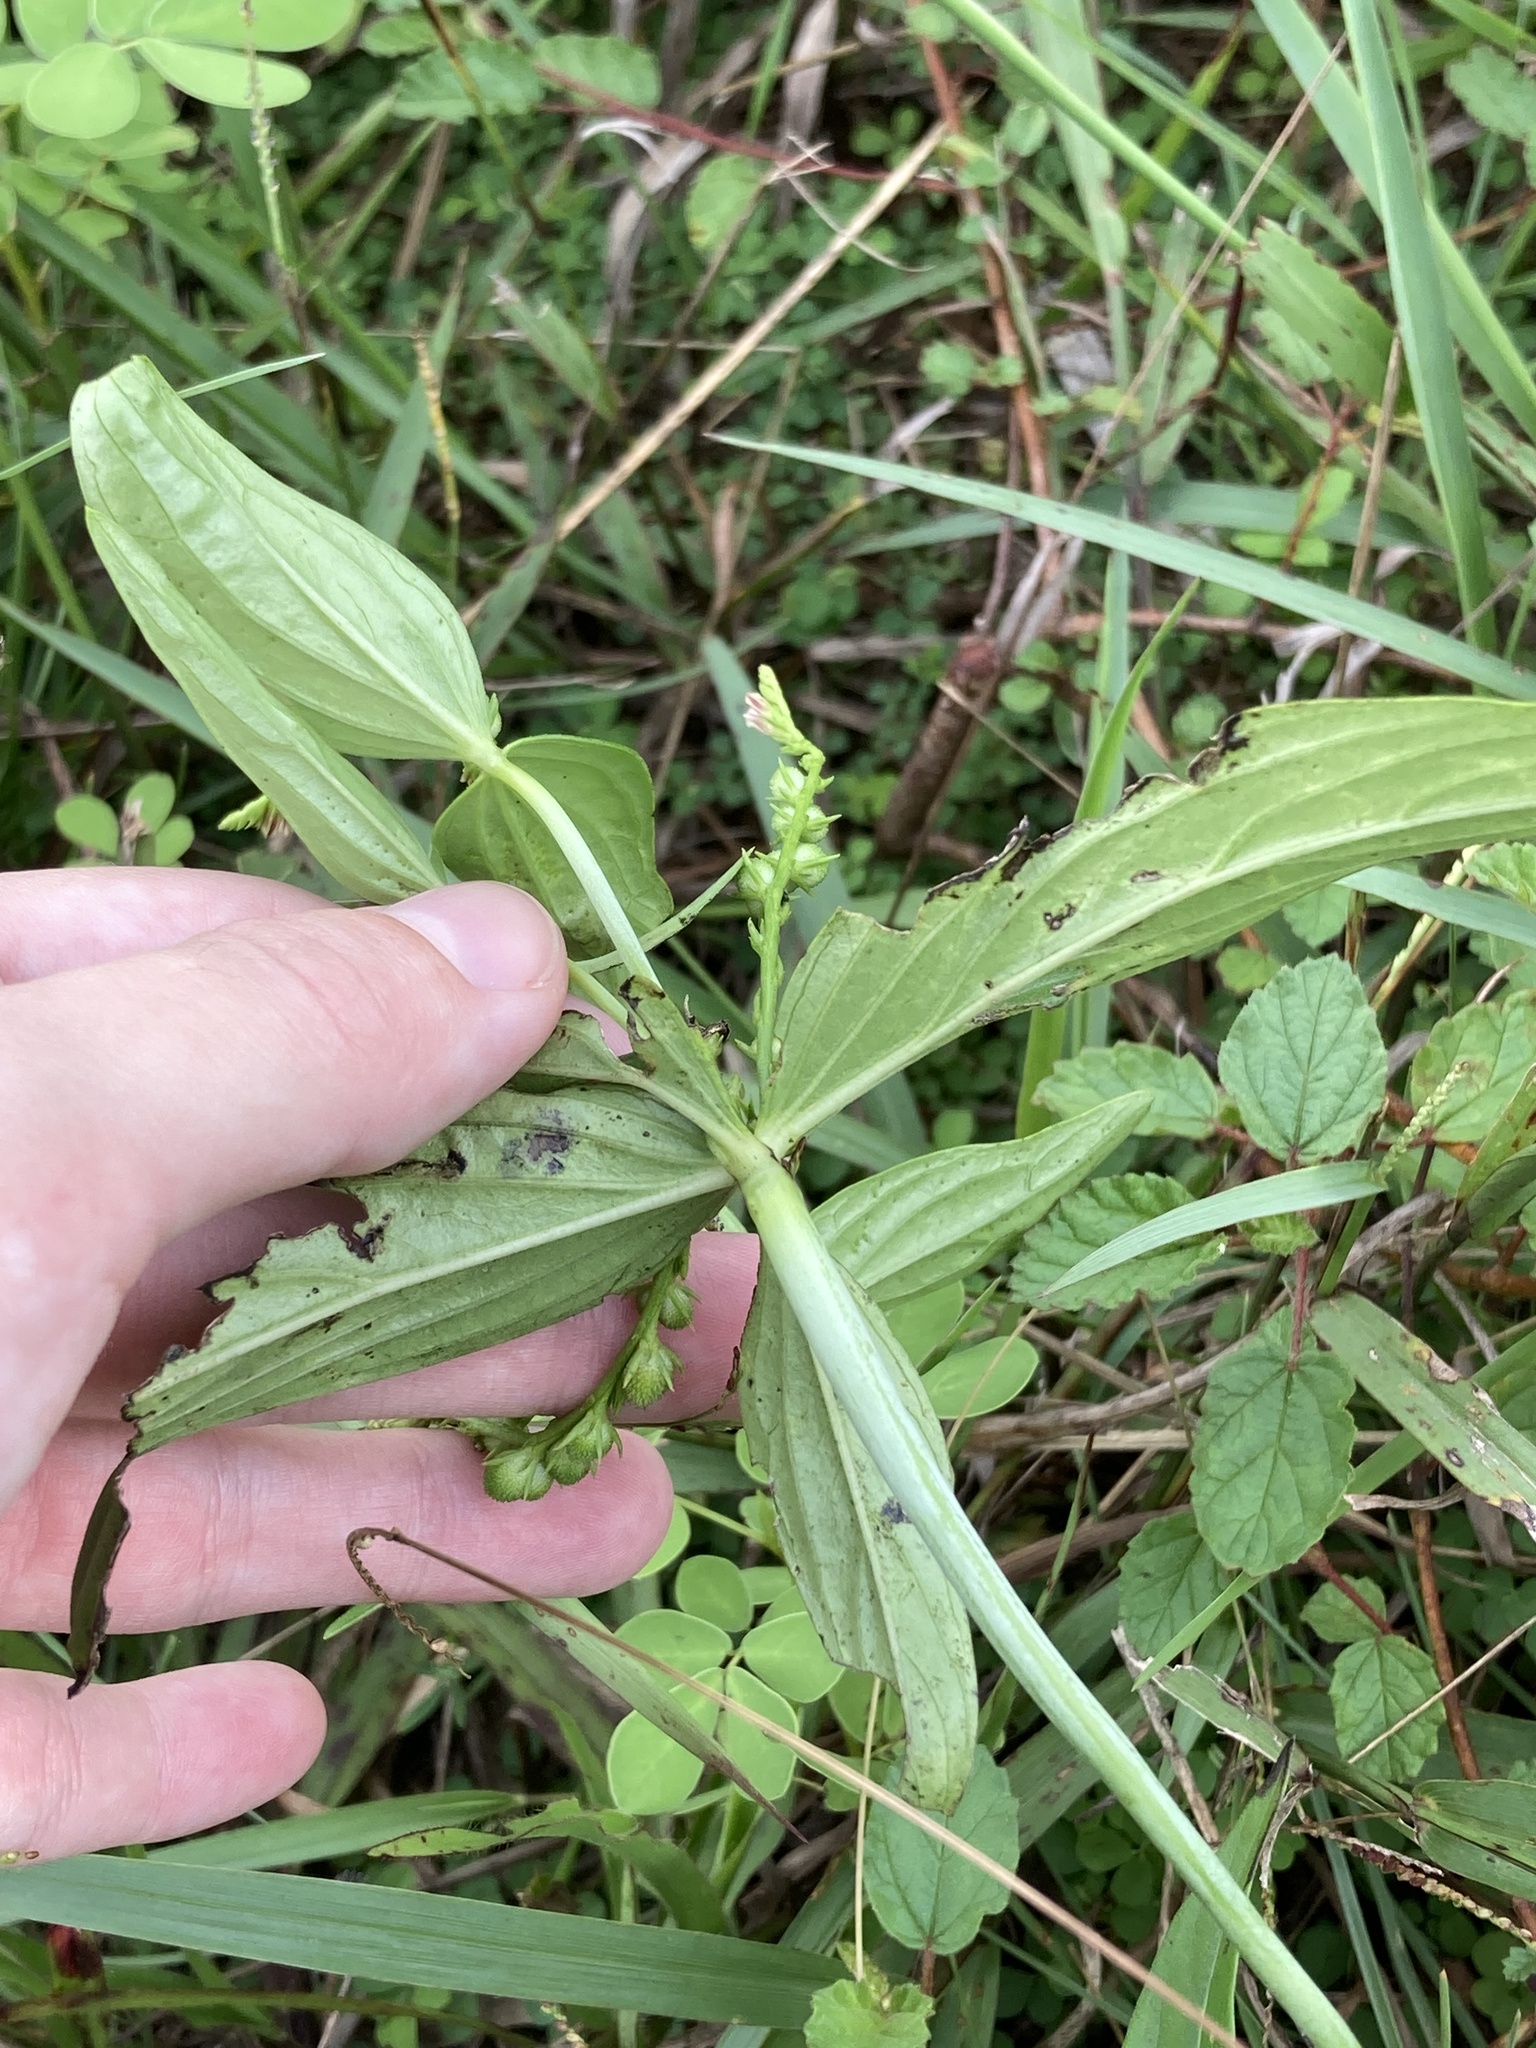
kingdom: Plantae
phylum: Tracheophyta
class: Magnoliopsida
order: Gentianales
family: Loganiaceae
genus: Spigelia
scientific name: Spigelia anthelmia
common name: West indian-pink
